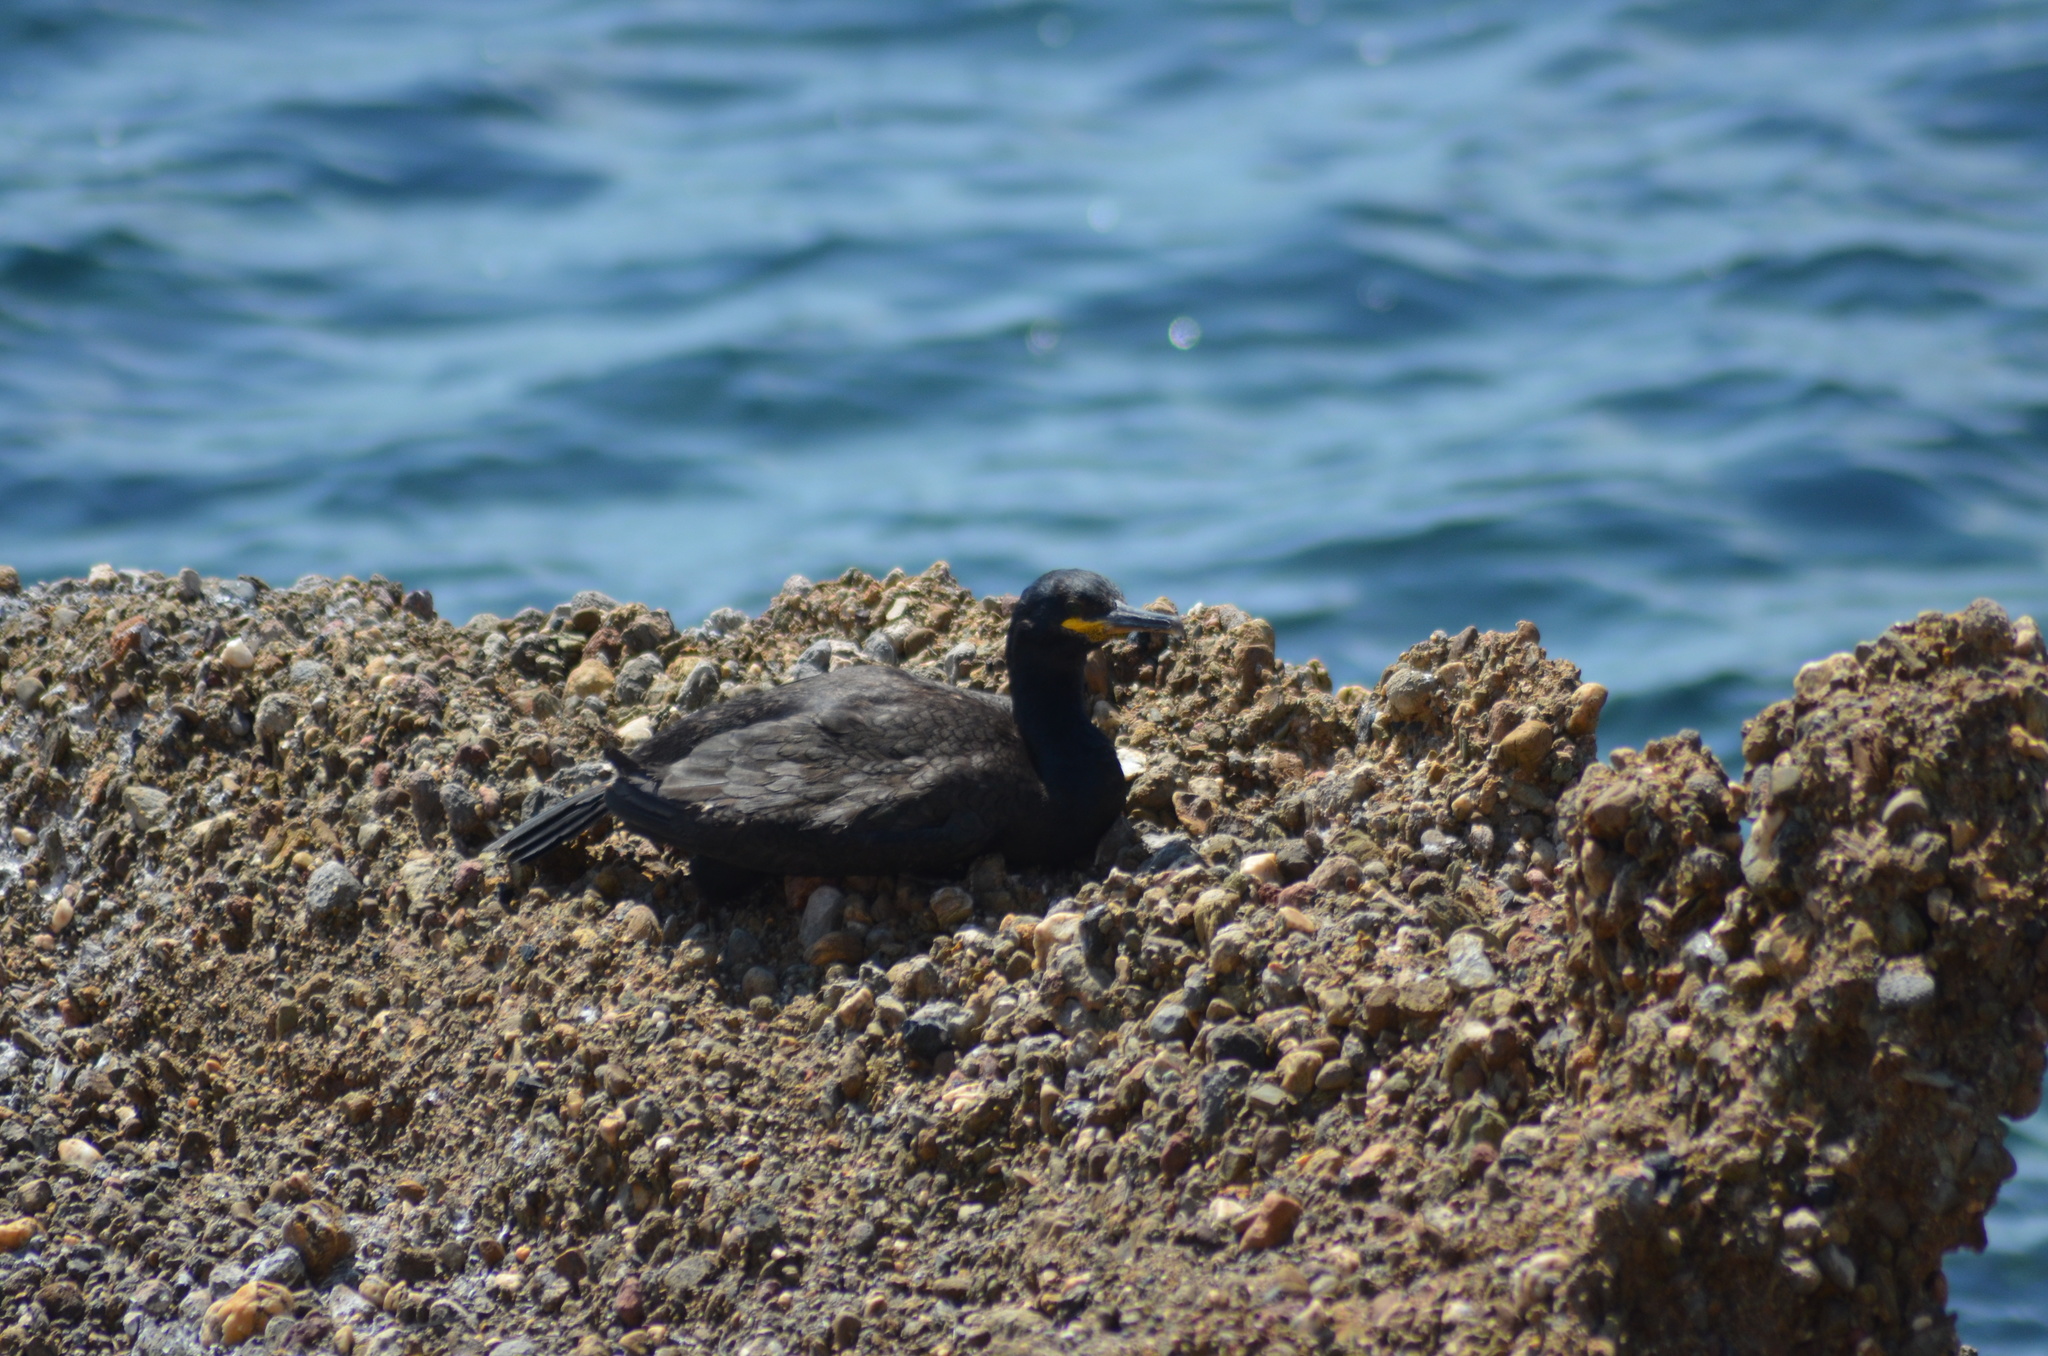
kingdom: Animalia
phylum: Chordata
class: Aves
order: Suliformes
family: Phalacrocoracidae
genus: Phalacrocorax
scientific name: Phalacrocorax aristotelis
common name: European shag
